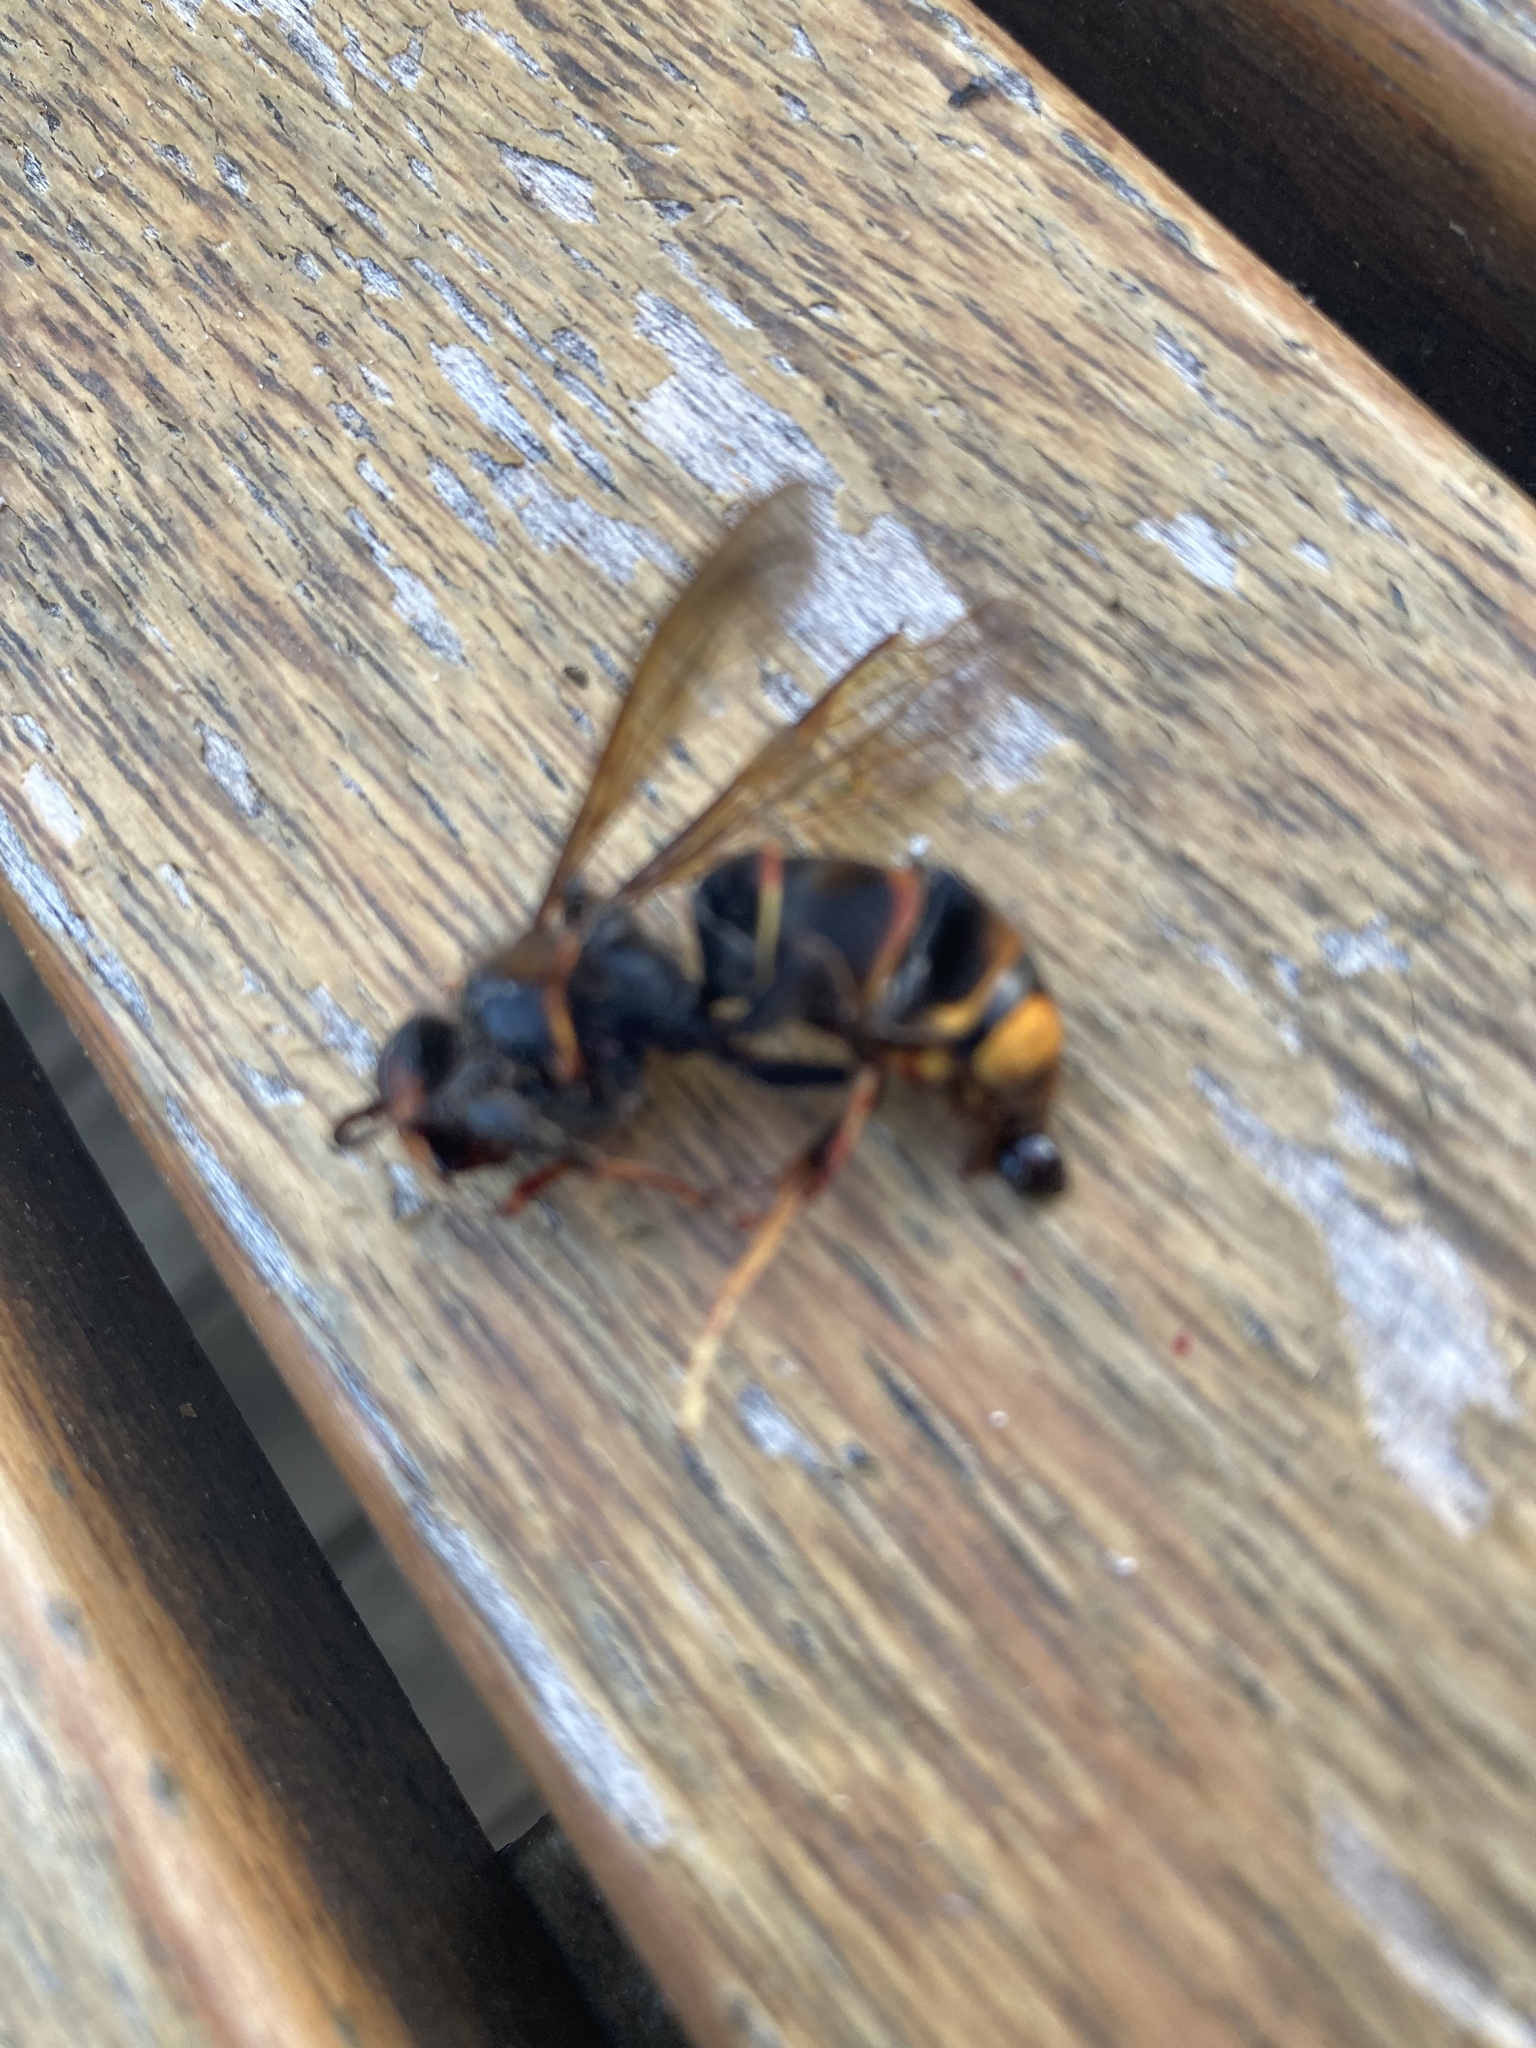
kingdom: Animalia
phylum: Arthropoda
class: Insecta
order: Hymenoptera
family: Vespidae
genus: Vespa
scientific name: Vespa velutina
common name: Asian hornet
